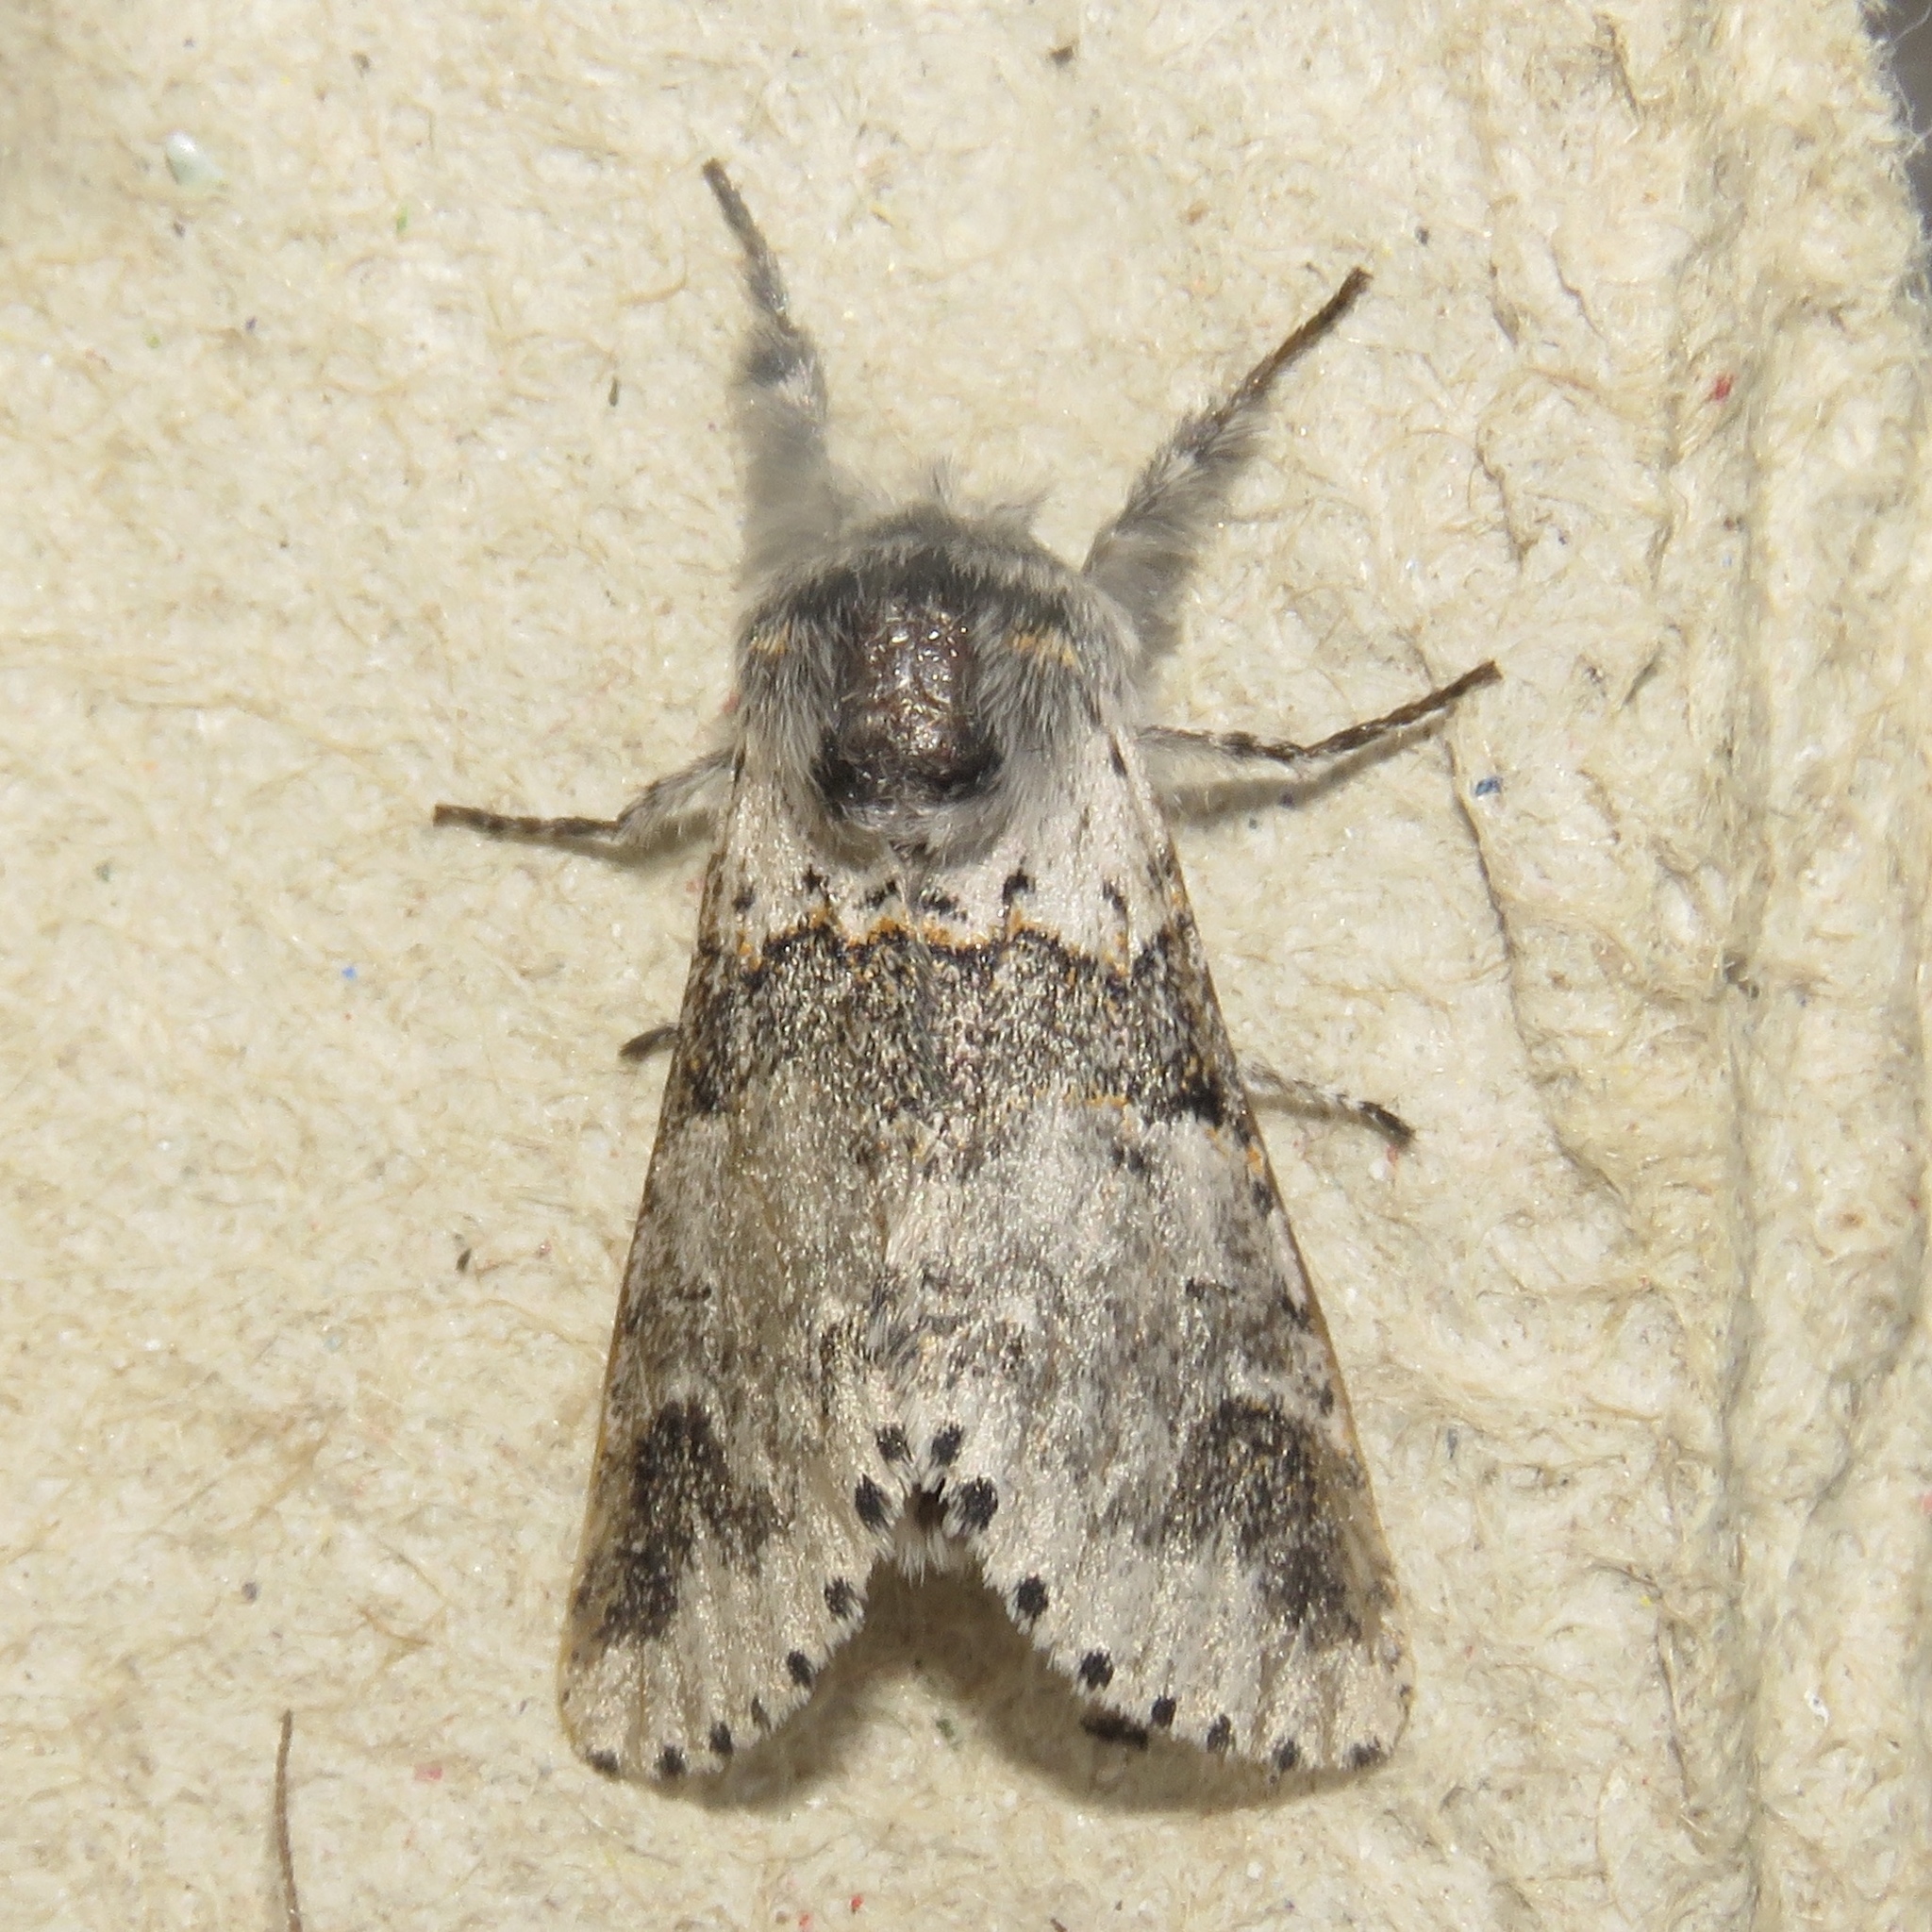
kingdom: Animalia
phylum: Arthropoda
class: Insecta
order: Lepidoptera
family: Notodontidae
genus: Furcula
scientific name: Furcula occidentalis
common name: Western furcula moth
